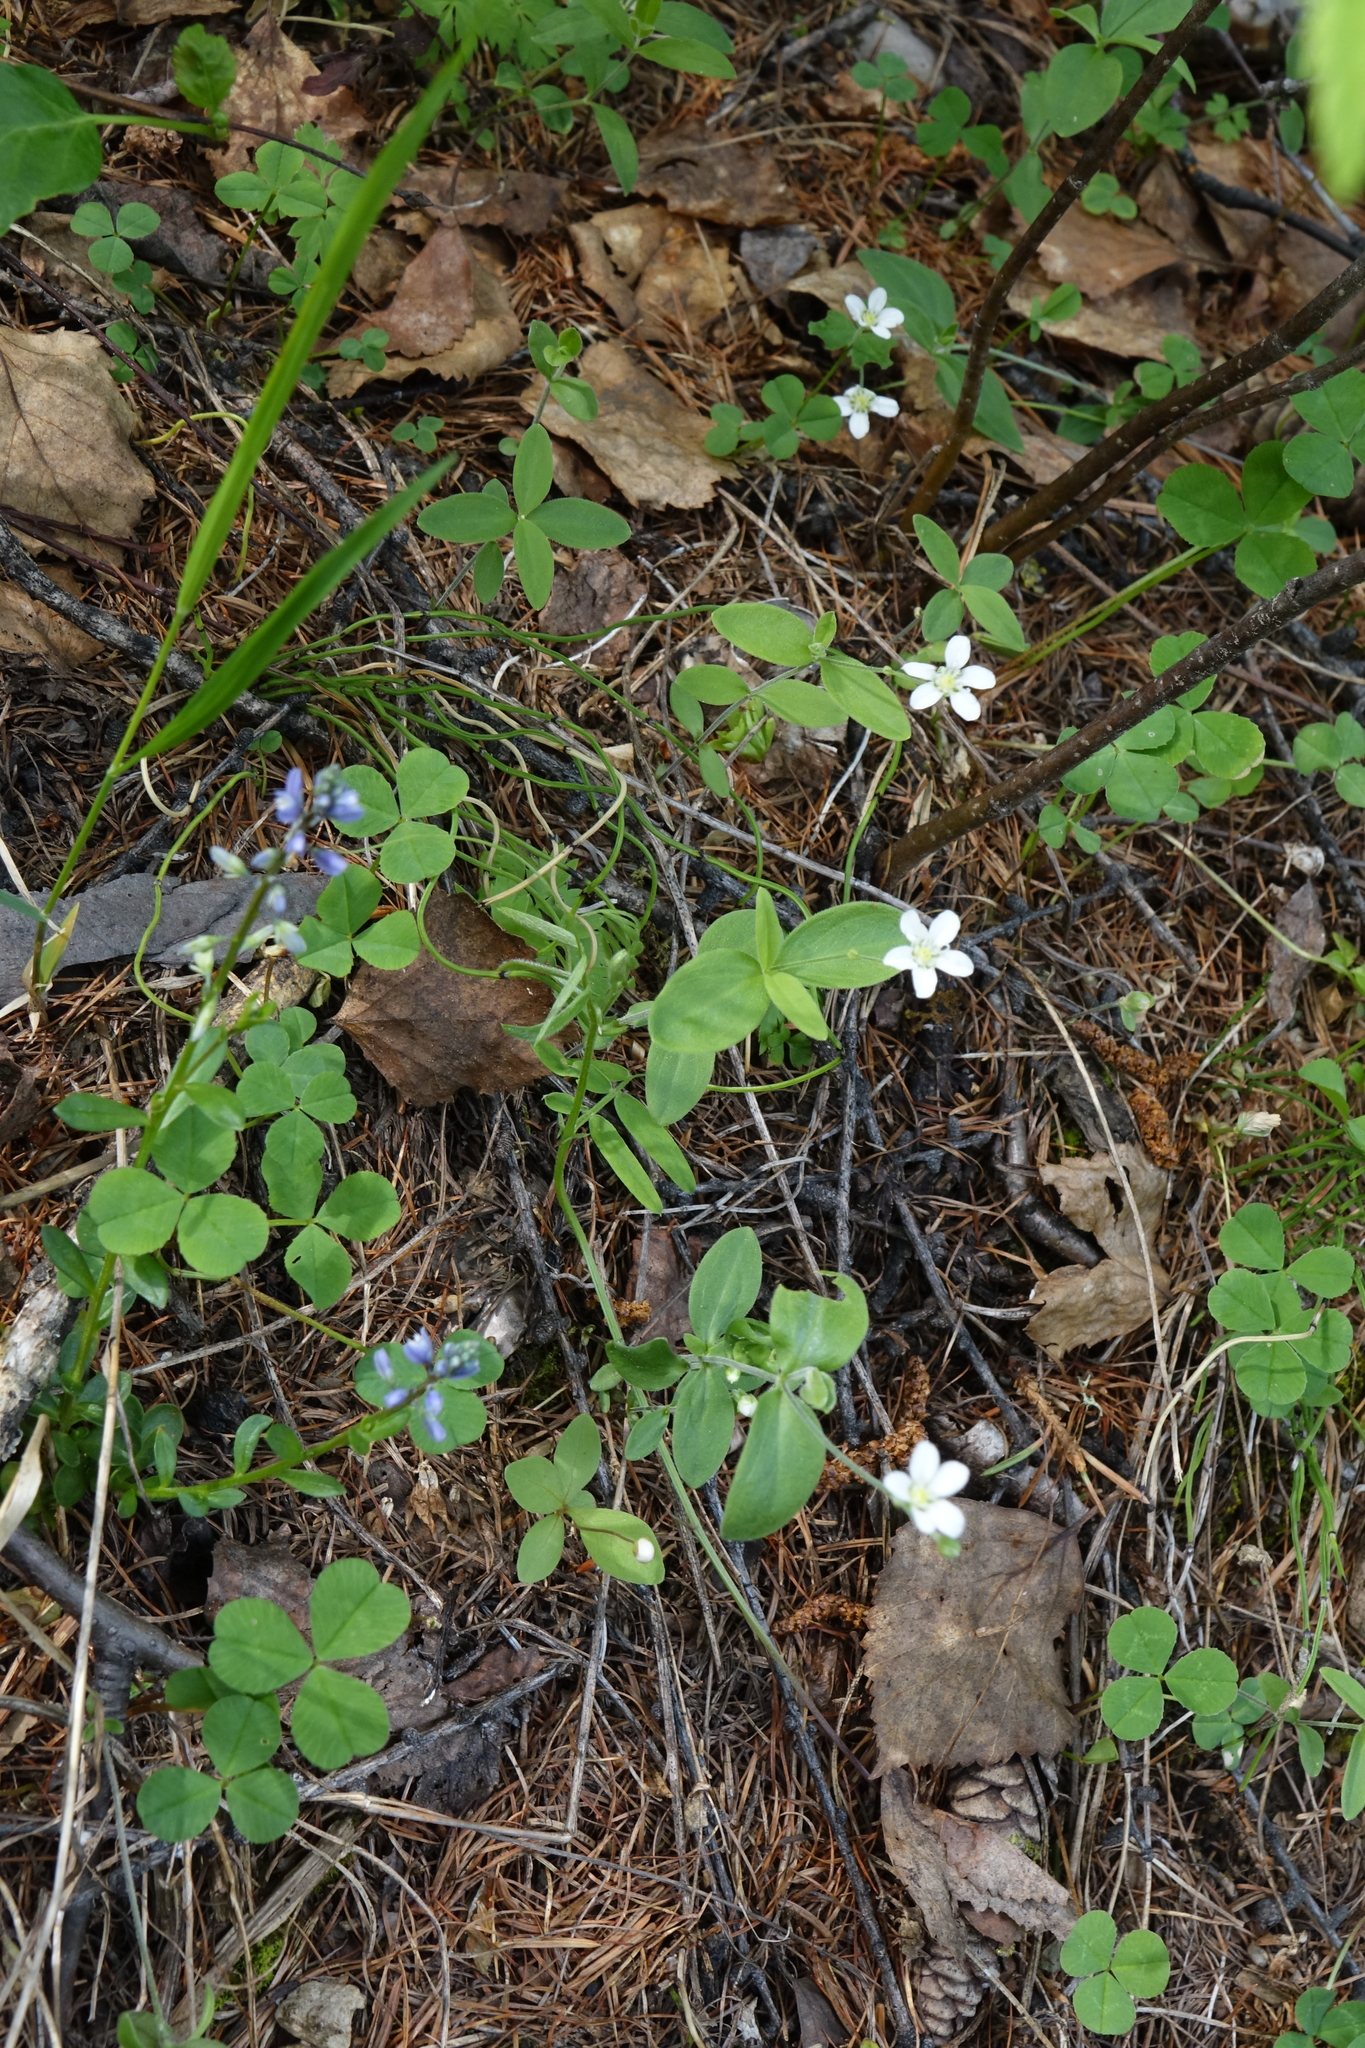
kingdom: Plantae
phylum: Tracheophyta
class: Magnoliopsida
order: Caryophyllales
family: Caryophyllaceae
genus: Moehringia
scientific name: Moehringia lateriflora
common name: Blunt-leaved sandwort
